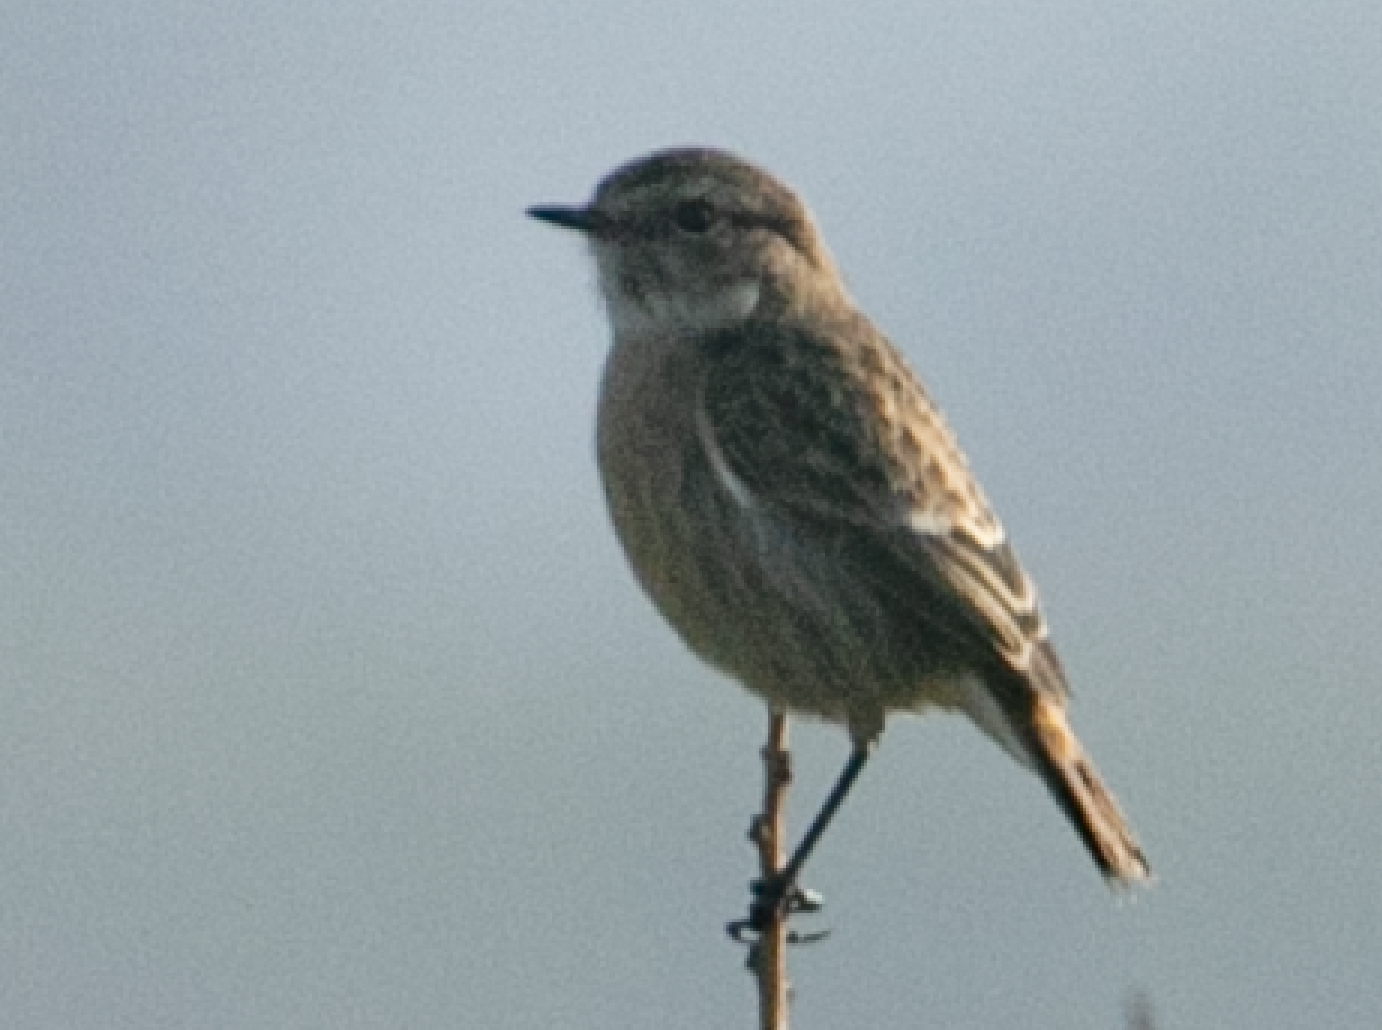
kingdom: Animalia
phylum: Chordata
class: Aves
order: Passeriformes
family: Muscicapidae
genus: Saxicola
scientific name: Saxicola rubicola
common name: European stonechat
